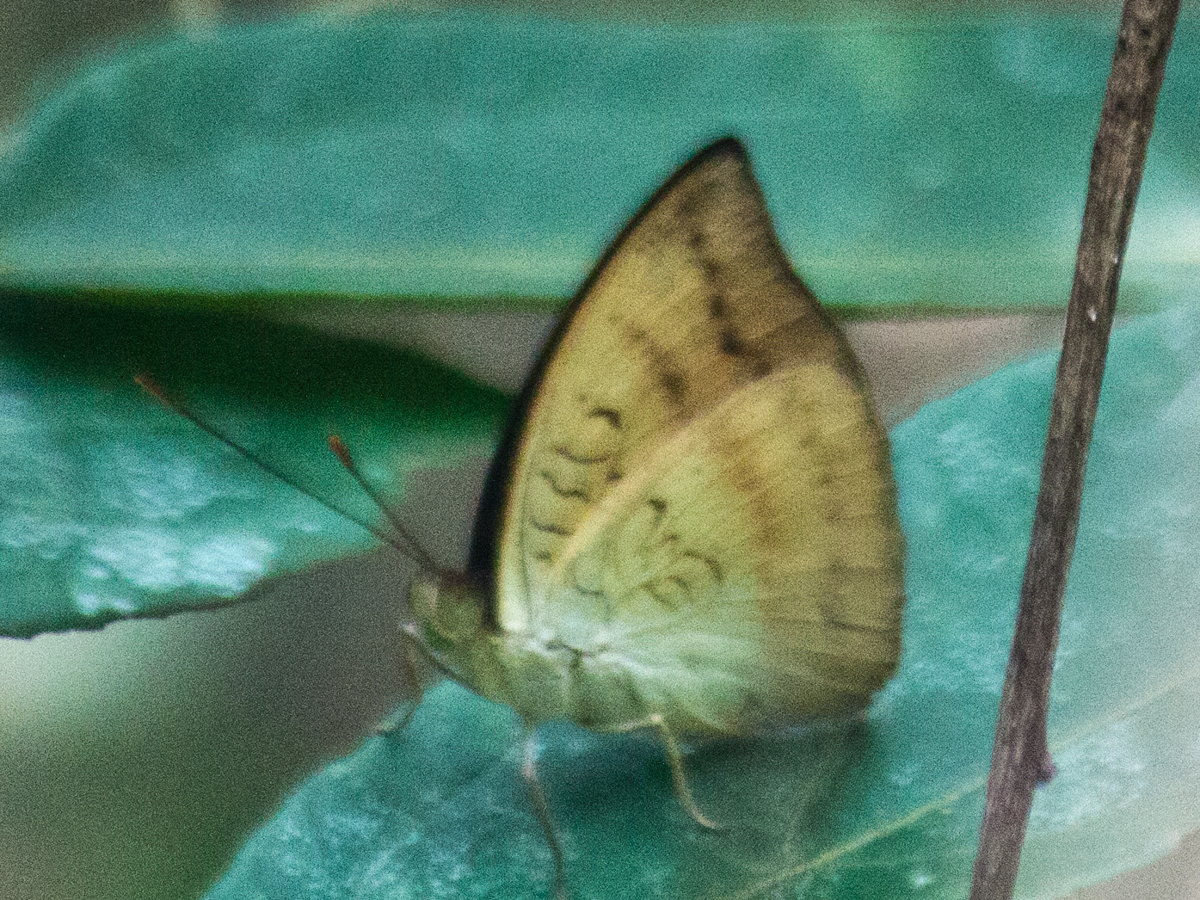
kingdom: Animalia
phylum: Arthropoda
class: Insecta
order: Lepidoptera
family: Nymphalidae
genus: Euthalia
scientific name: Euthalia monina
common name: Powdered baron
